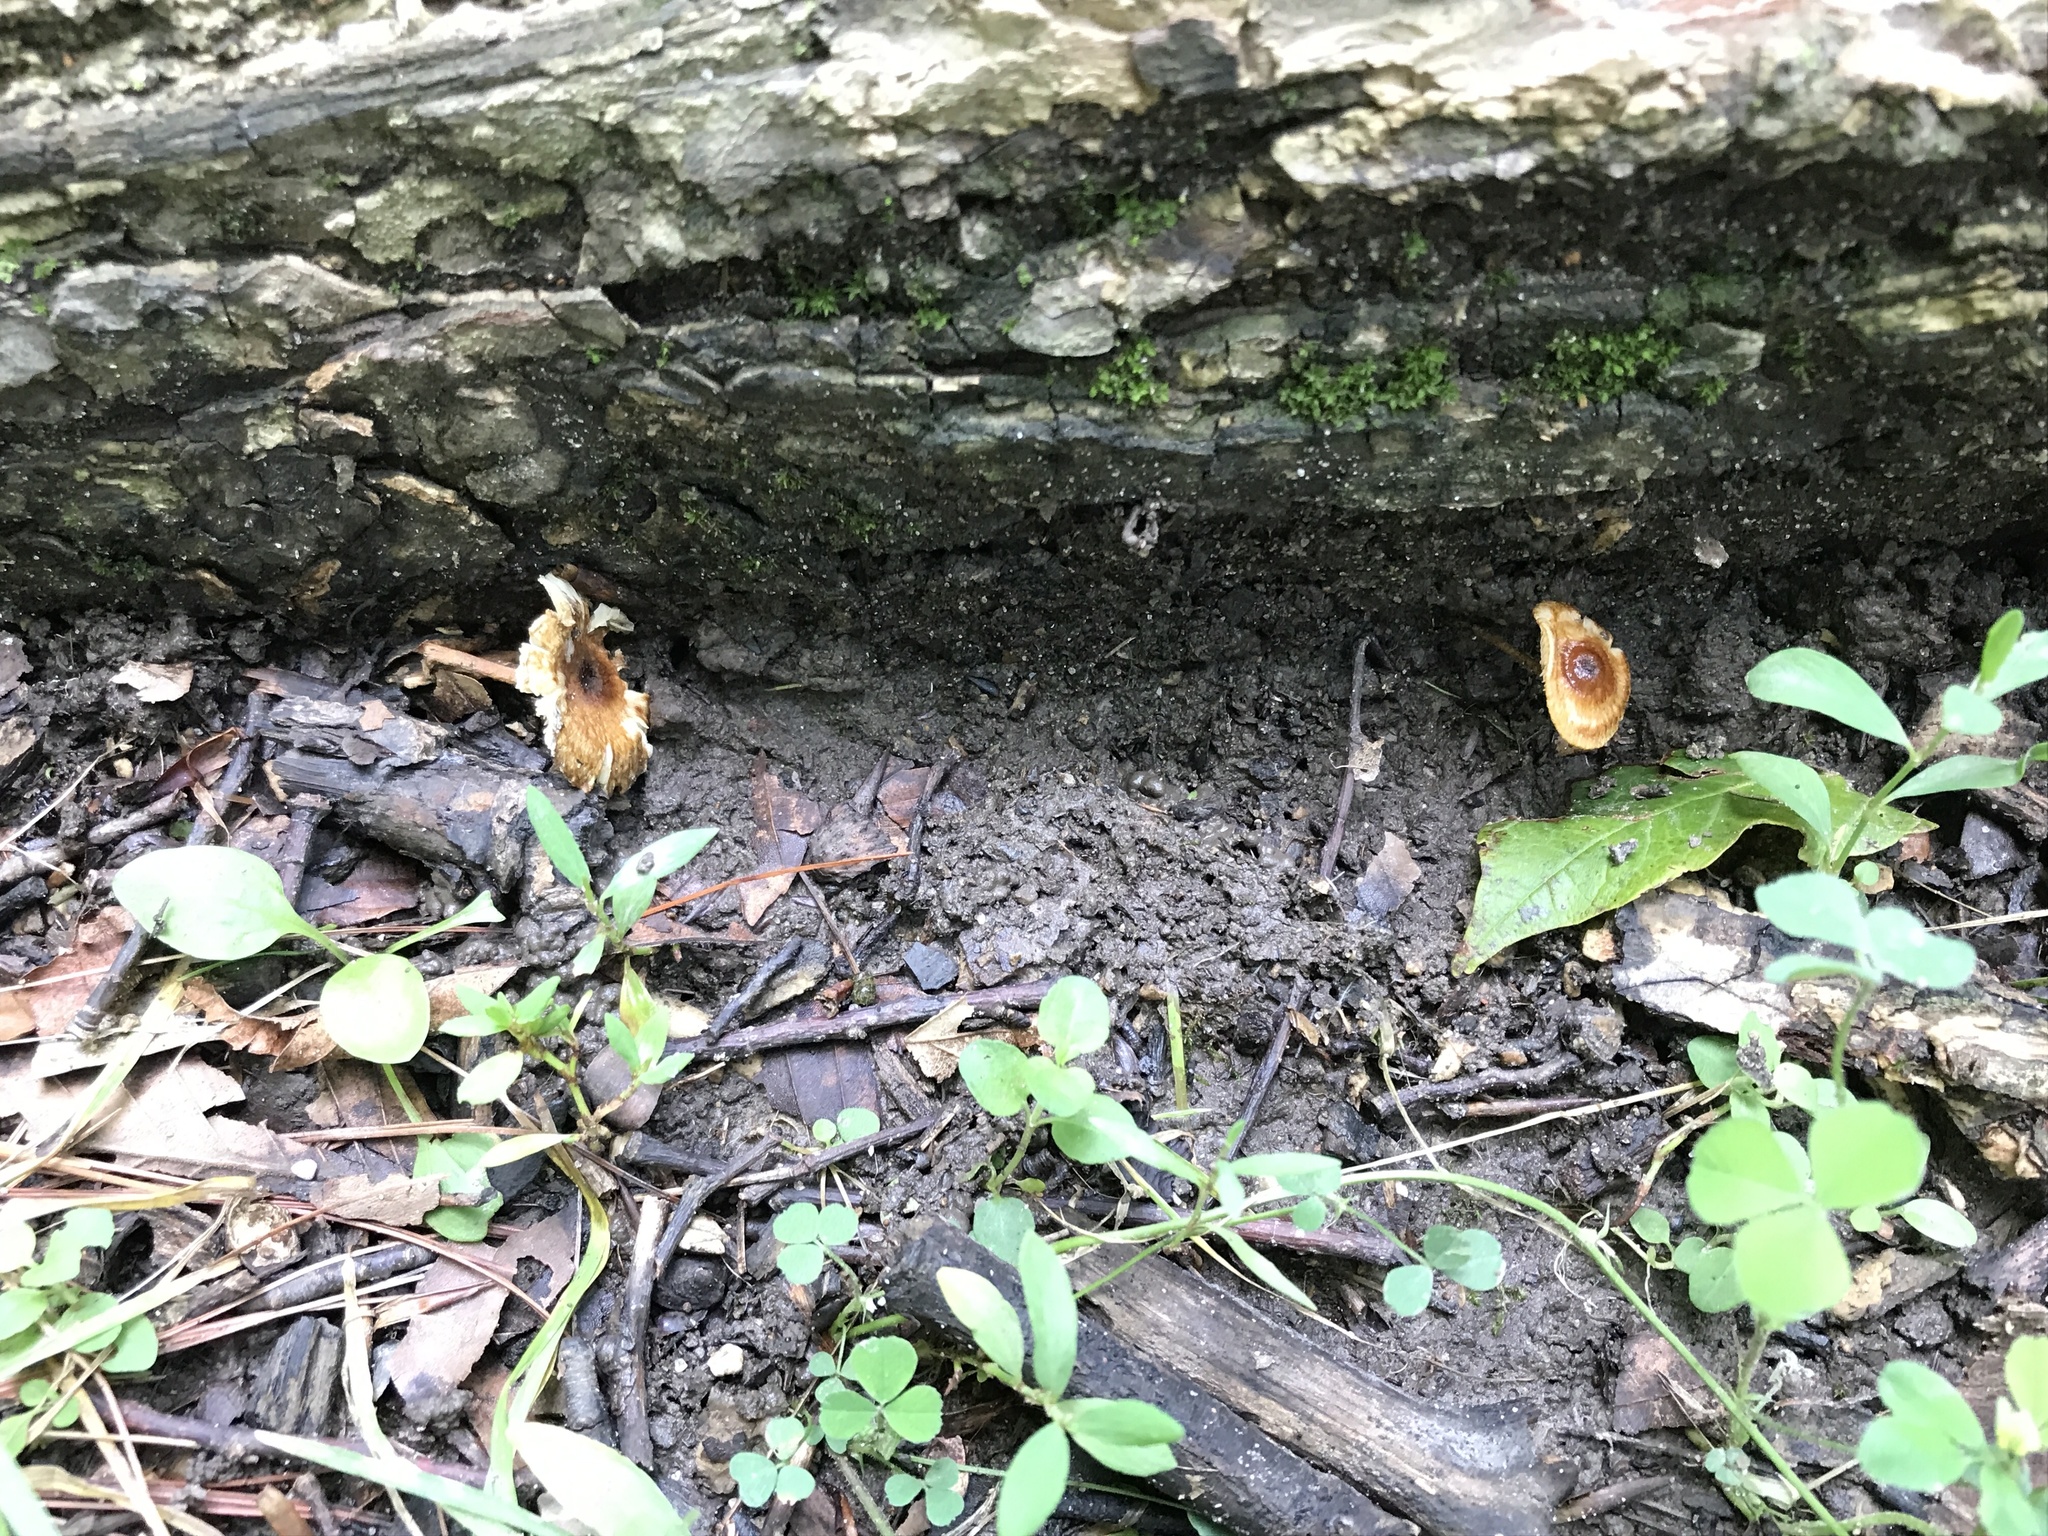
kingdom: Fungi
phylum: Basidiomycota
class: Agaricomycetes
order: Agaricales
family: Tricholomataceae
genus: Collybia
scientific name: Collybia zonata
